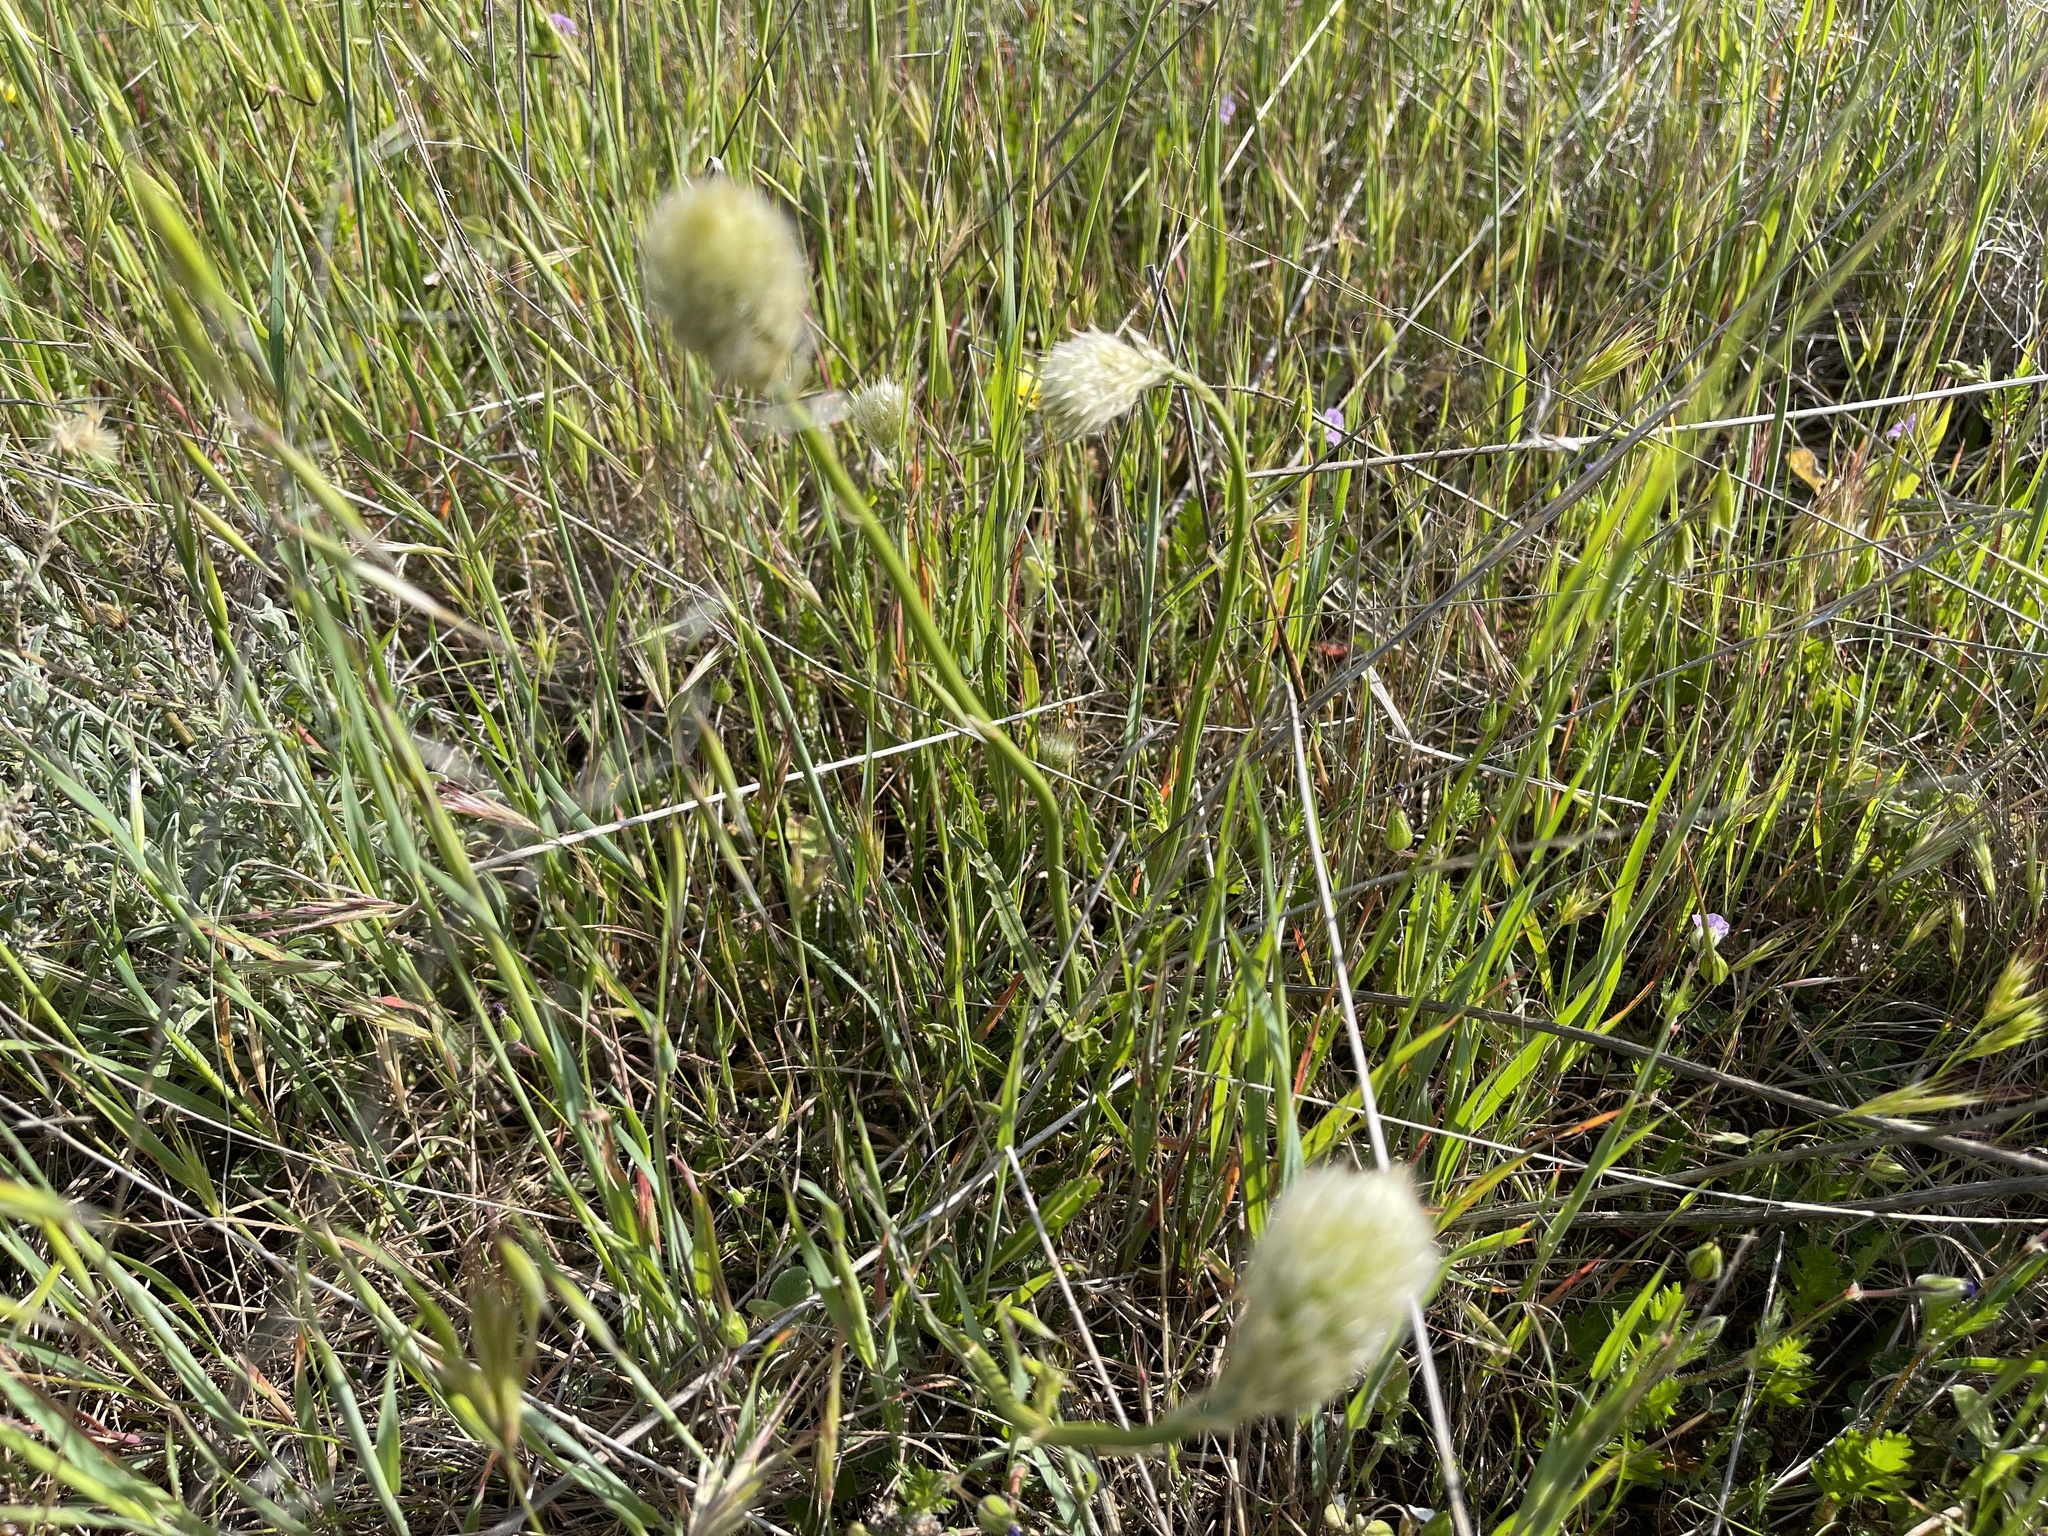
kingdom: Plantae
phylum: Tracheophyta
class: Magnoliopsida
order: Caryophyllales
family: Amaranthaceae
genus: Ptilotus
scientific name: Ptilotus macrocephalus
